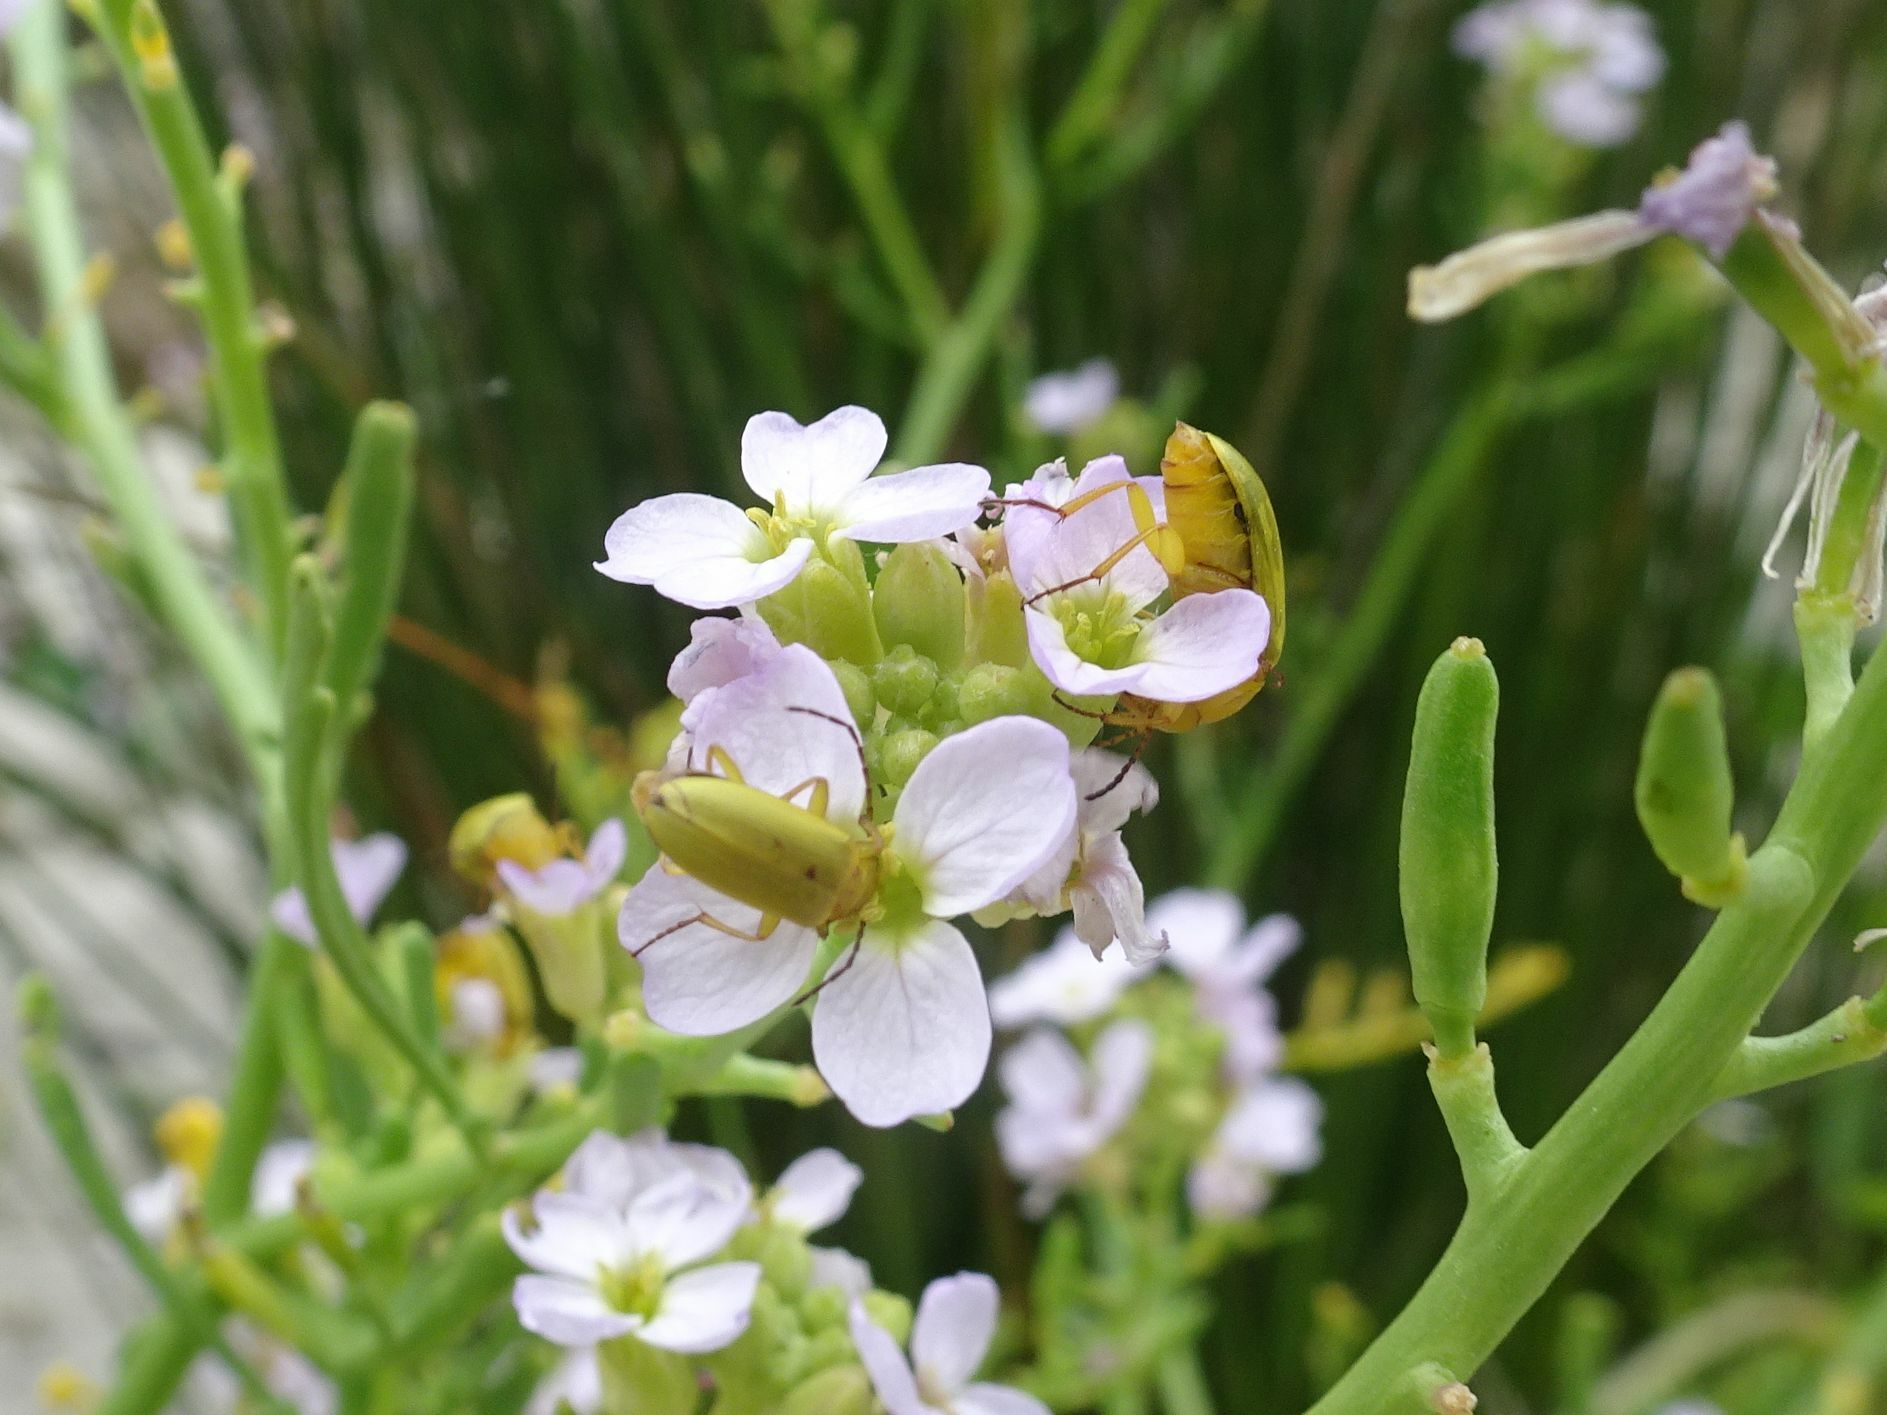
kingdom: Animalia
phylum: Arthropoda
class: Insecta
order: Coleoptera
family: Tenebrionidae
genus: Cteniopus
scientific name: Cteniopus sulphureus
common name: Sulphur beetle
